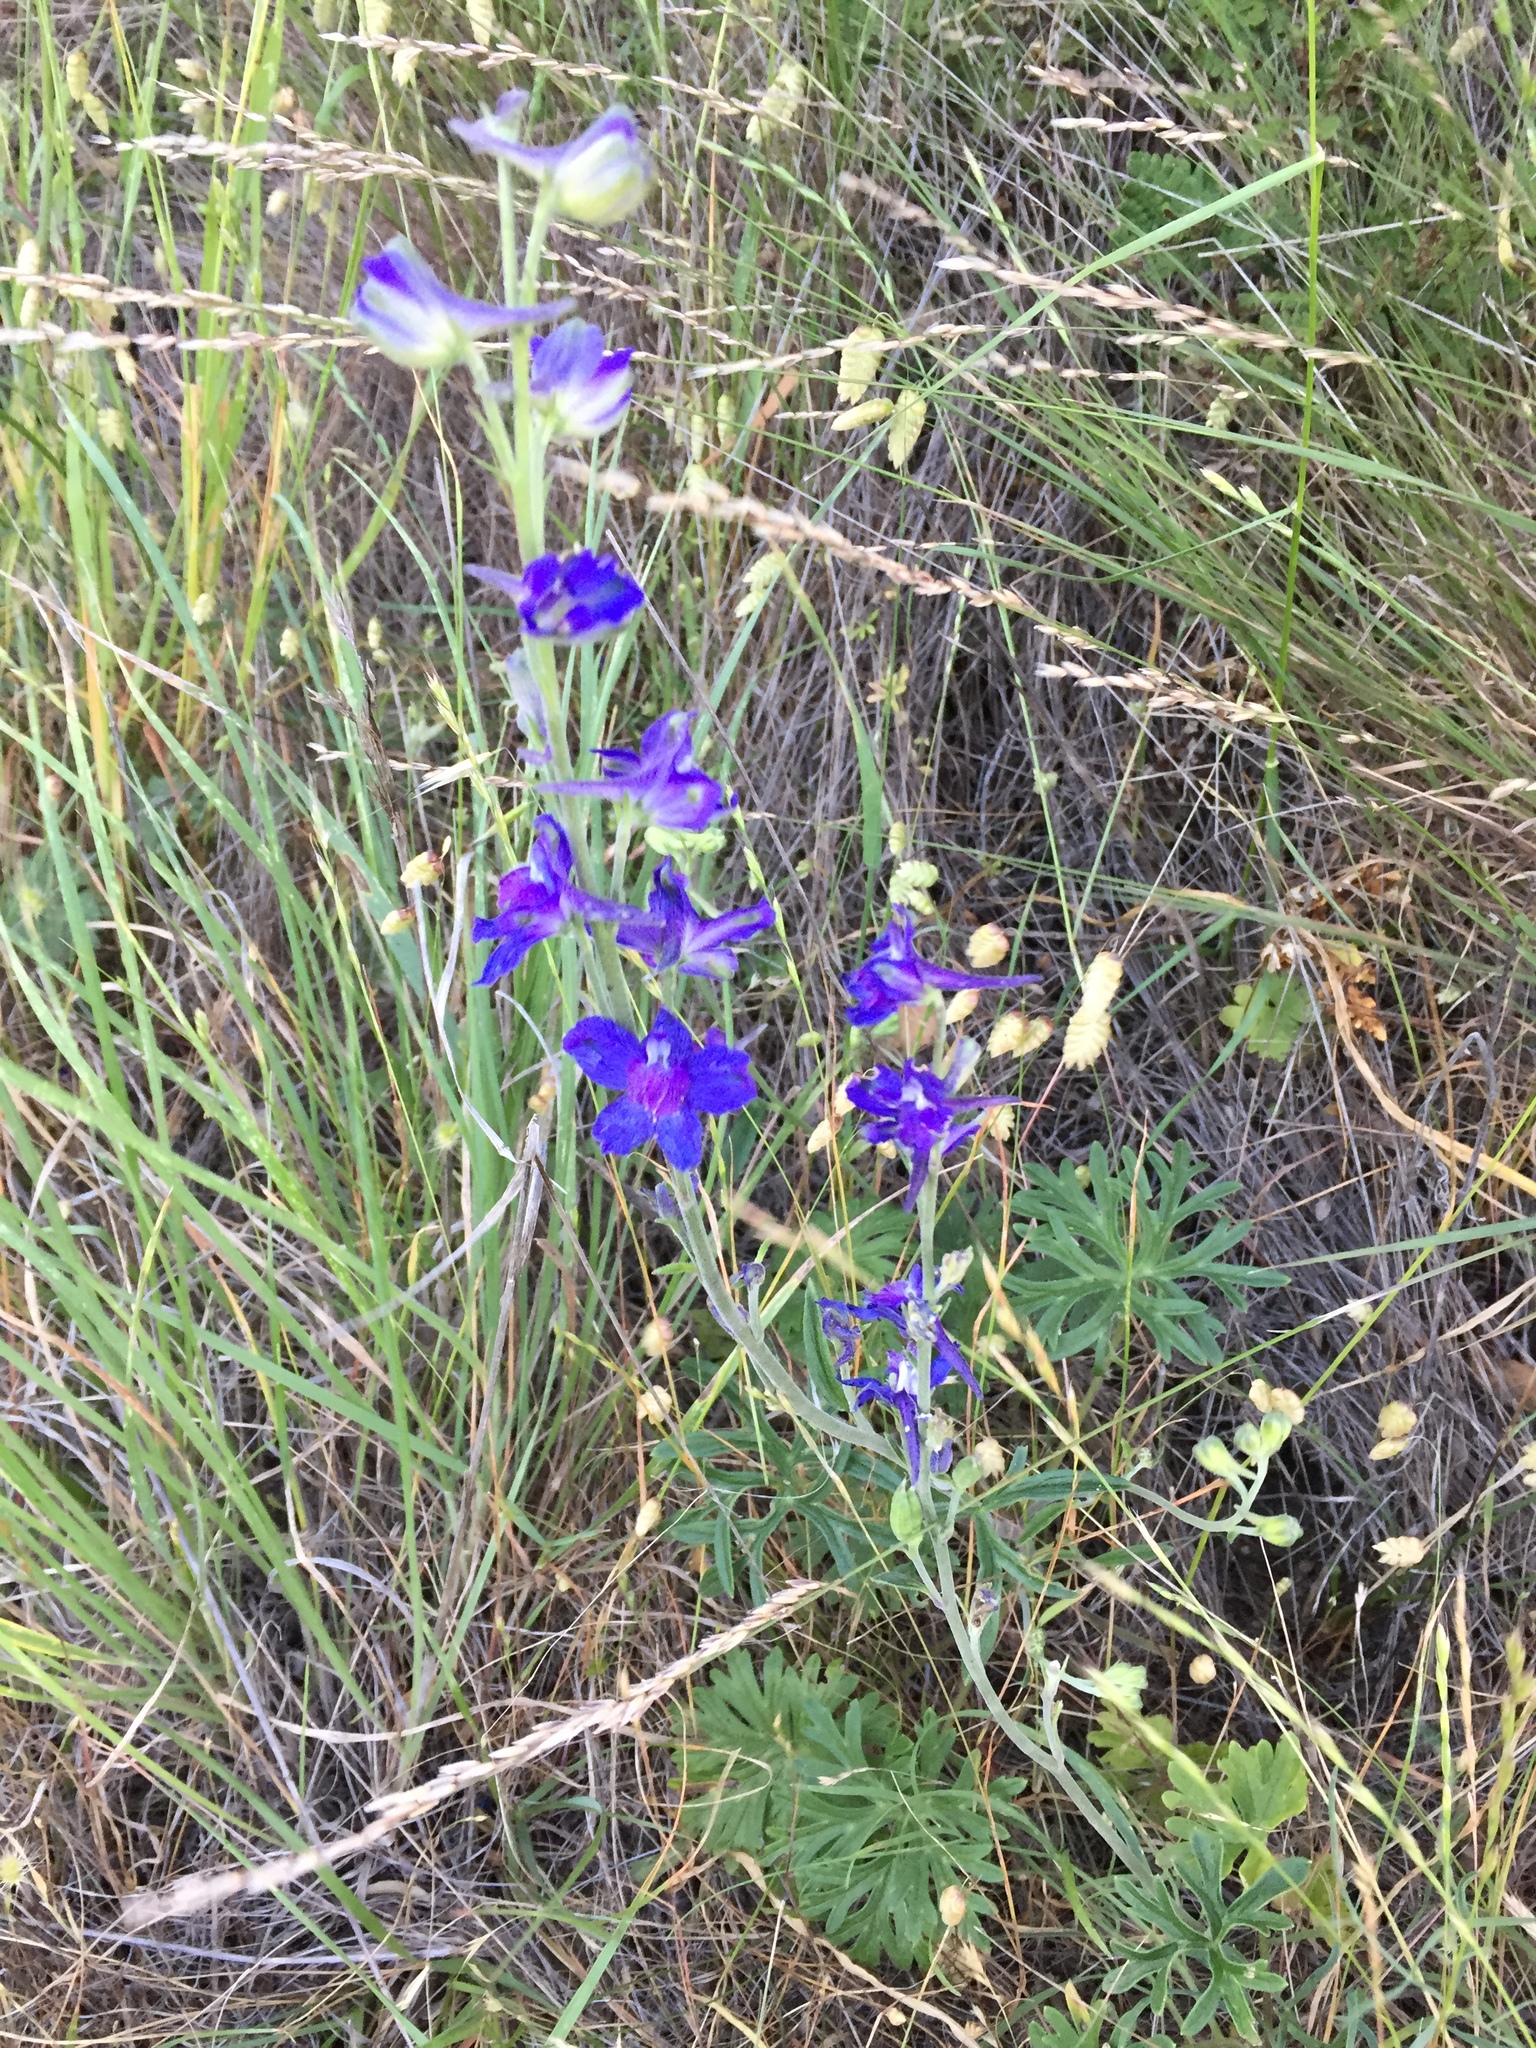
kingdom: Plantae
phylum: Tracheophyta
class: Magnoliopsida
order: Ranunculales
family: Ranunculaceae
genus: Delphinium
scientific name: Delphinium hesperium
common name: Western larkspur
